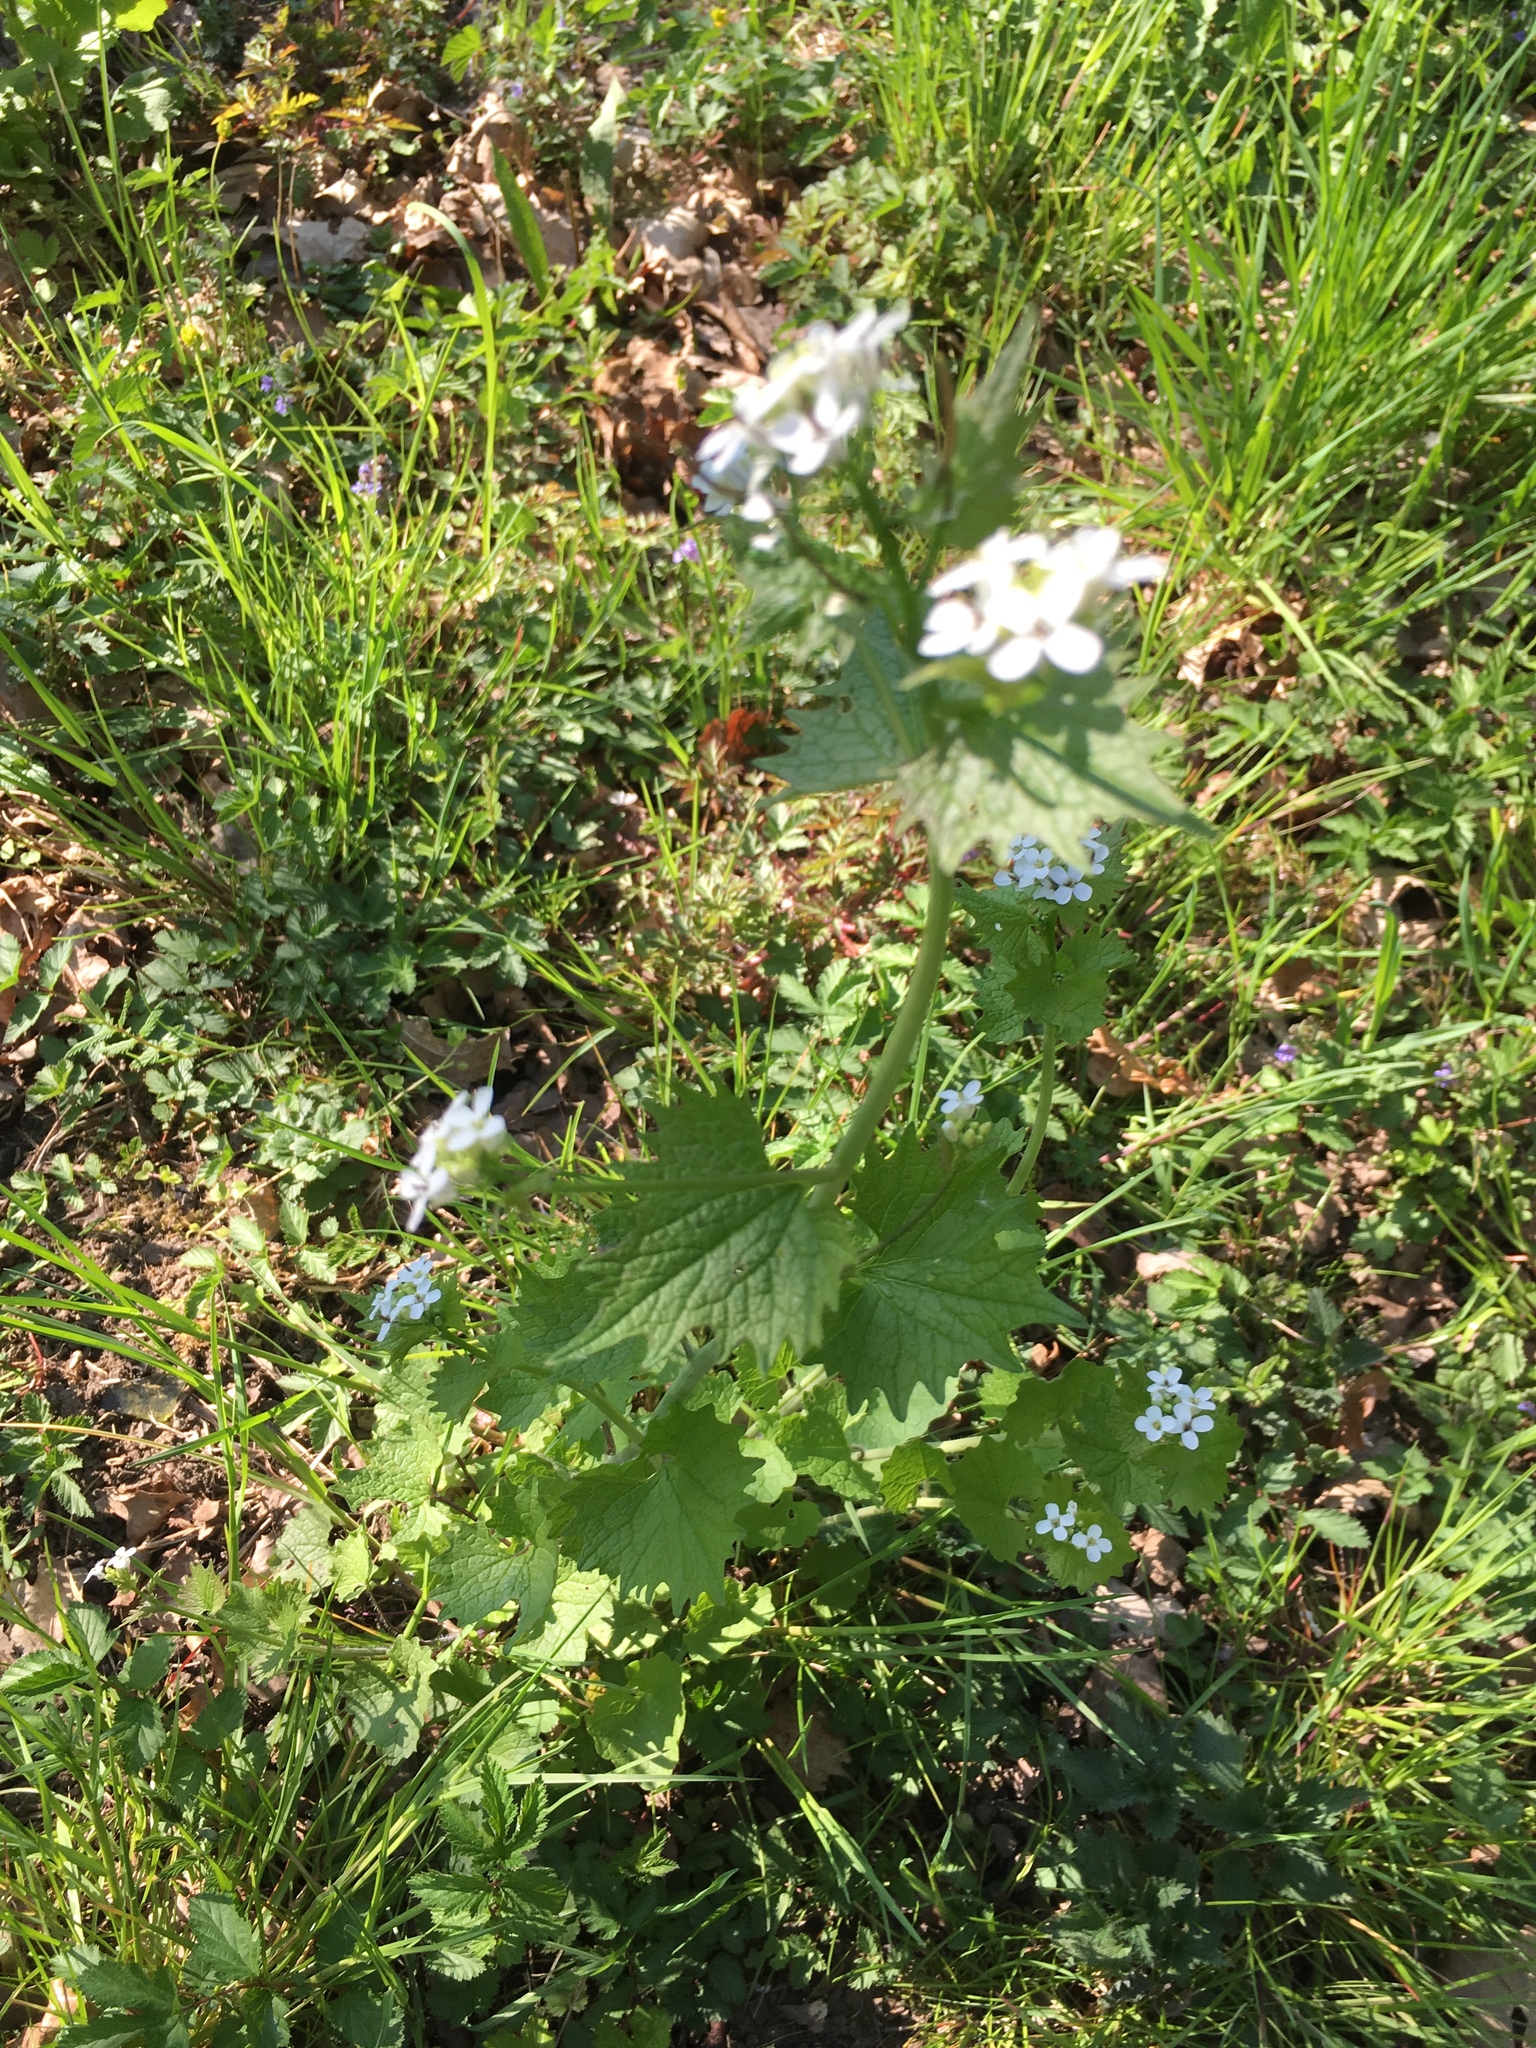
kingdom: Plantae
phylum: Tracheophyta
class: Magnoliopsida
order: Brassicales
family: Brassicaceae
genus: Alliaria
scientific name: Alliaria petiolata
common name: Garlic mustard
